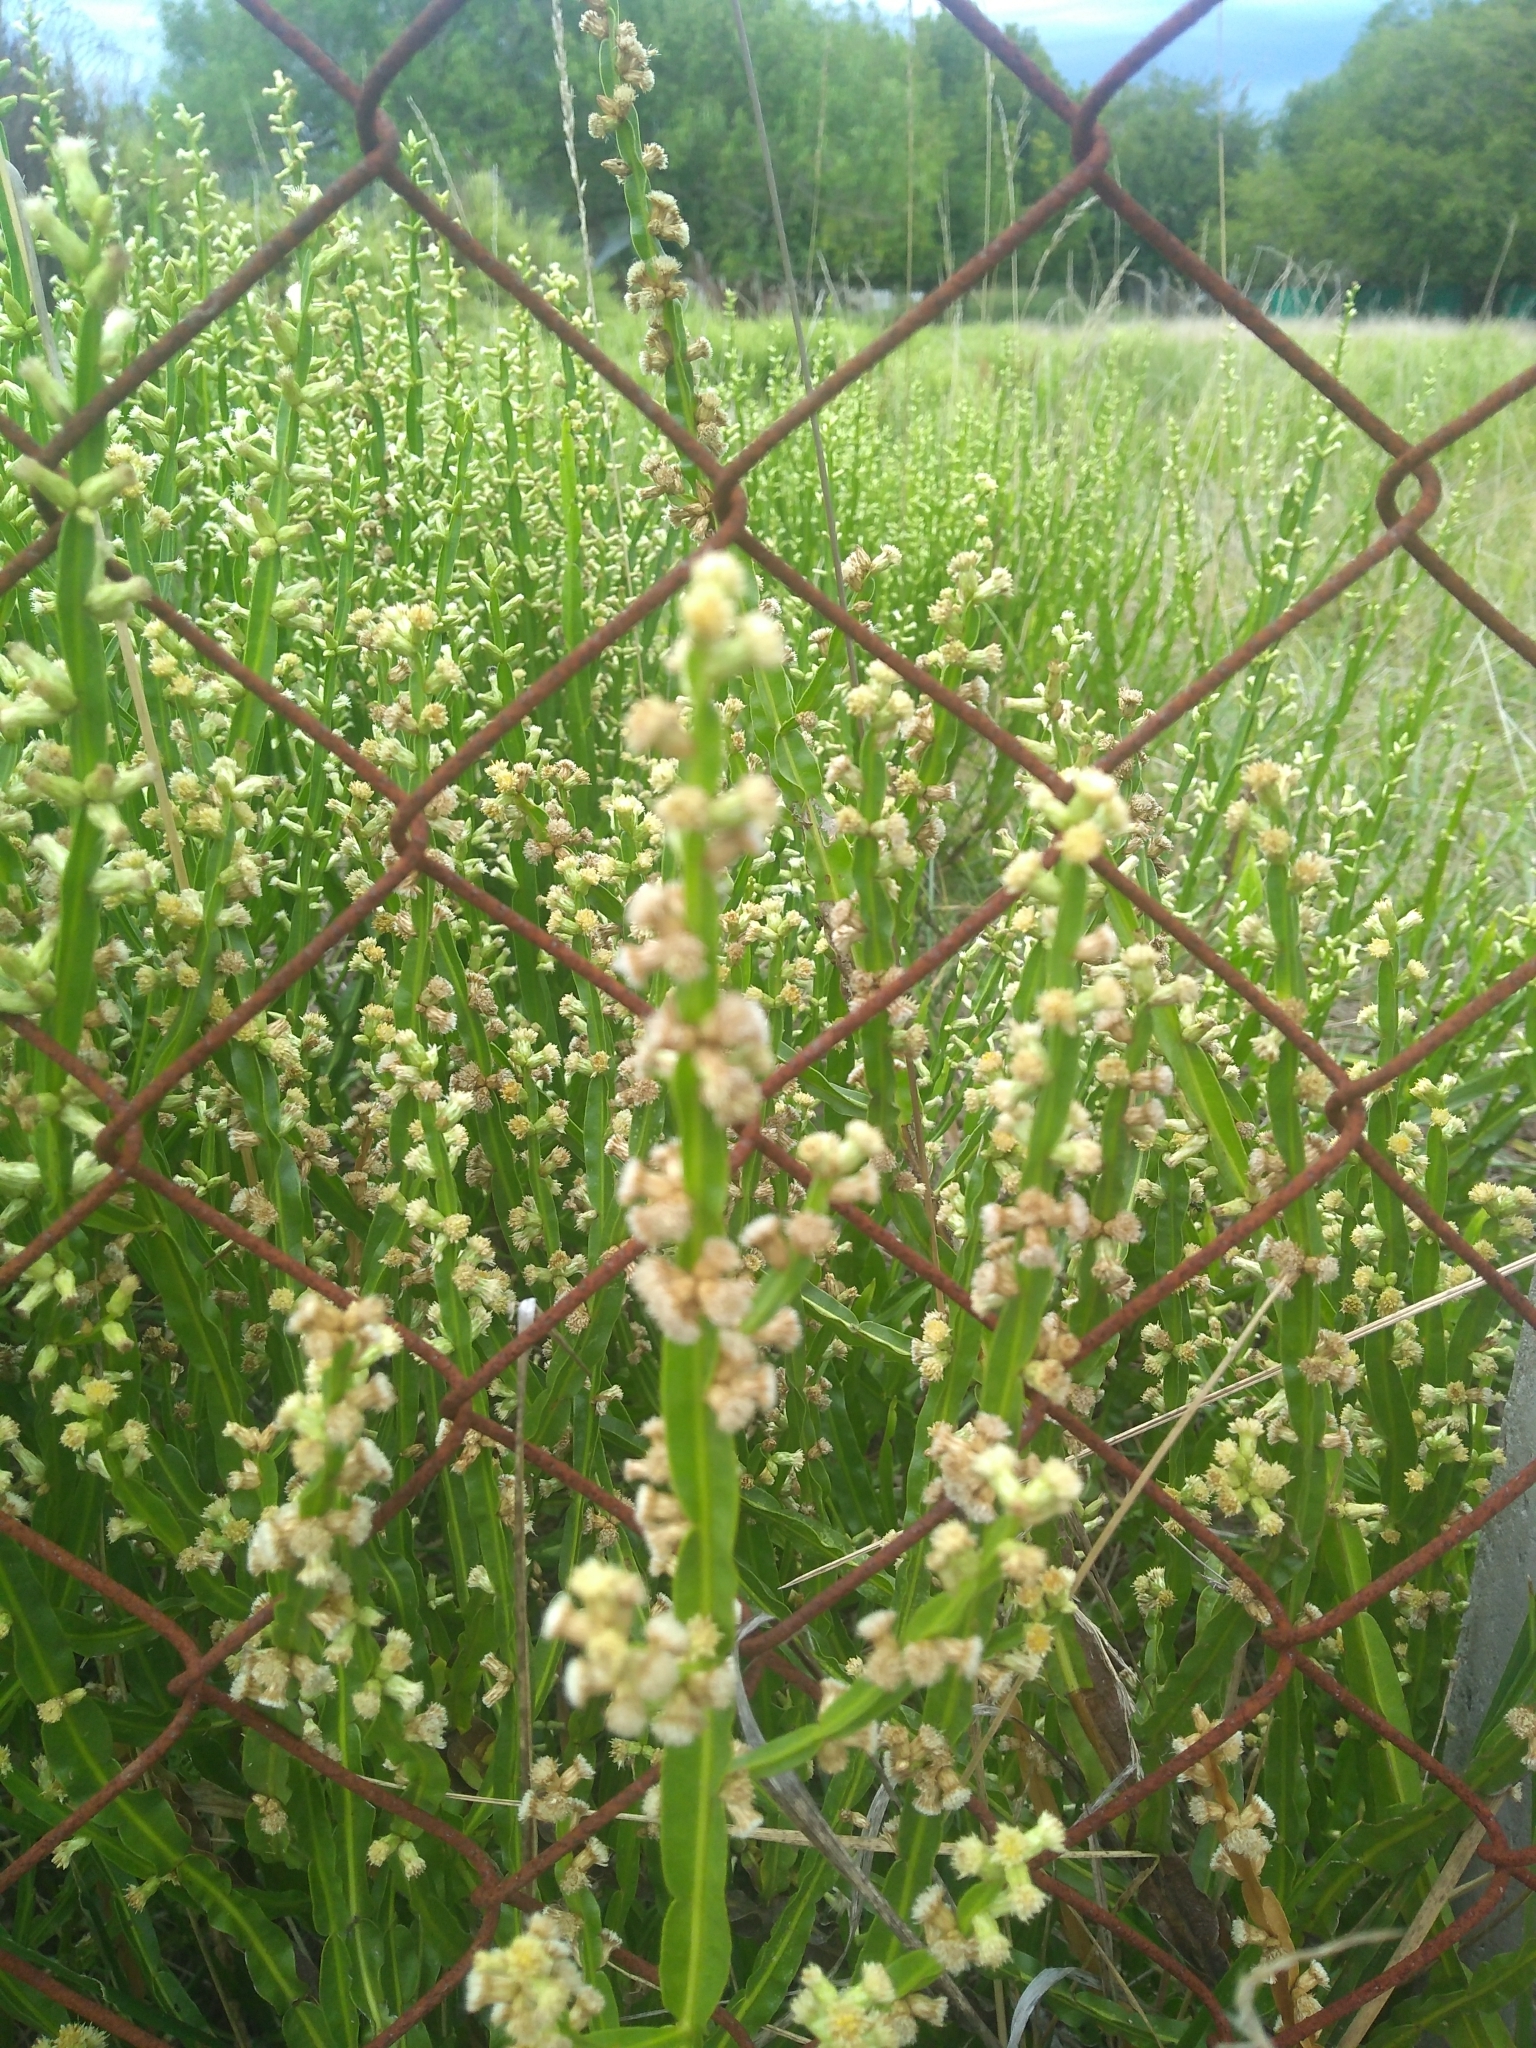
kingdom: Plantae
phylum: Tracheophyta
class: Magnoliopsida
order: Asterales
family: Asteraceae
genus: Baccharis
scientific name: Baccharis trimera
